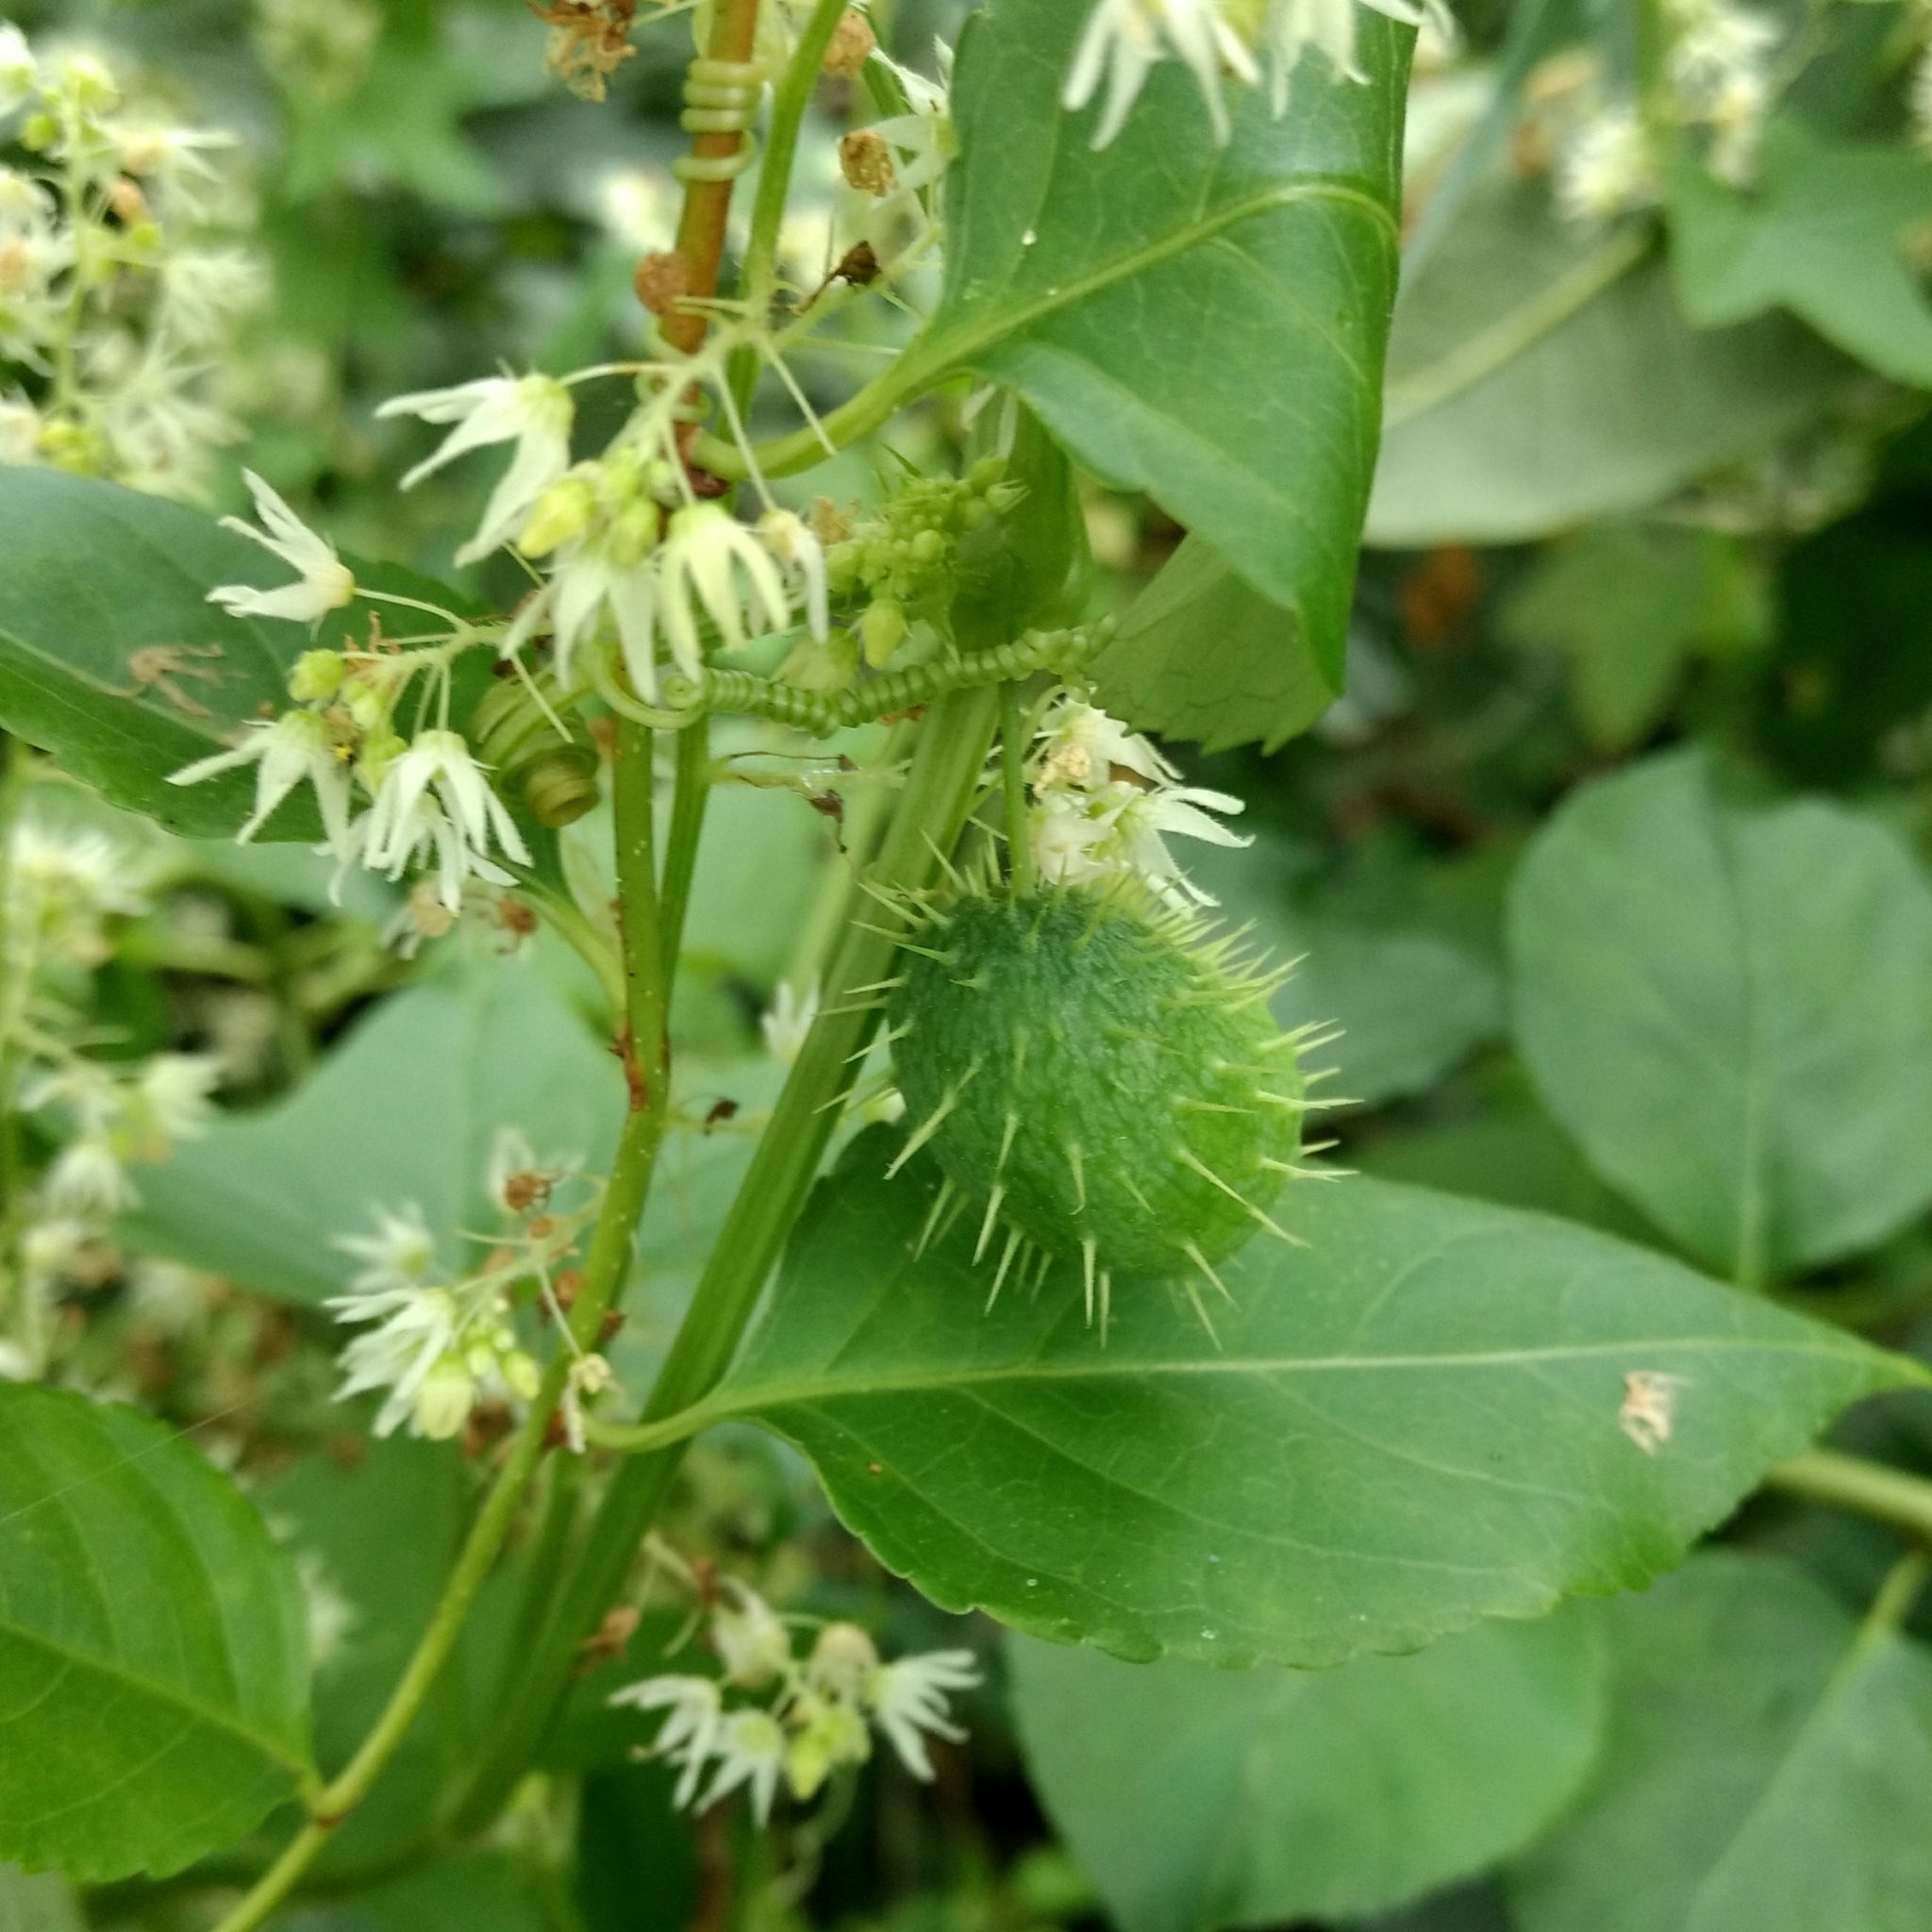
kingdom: Plantae
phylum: Tracheophyta
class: Magnoliopsida
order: Cucurbitales
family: Cucurbitaceae
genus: Echinocystis
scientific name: Echinocystis lobata
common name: Wild cucumber
